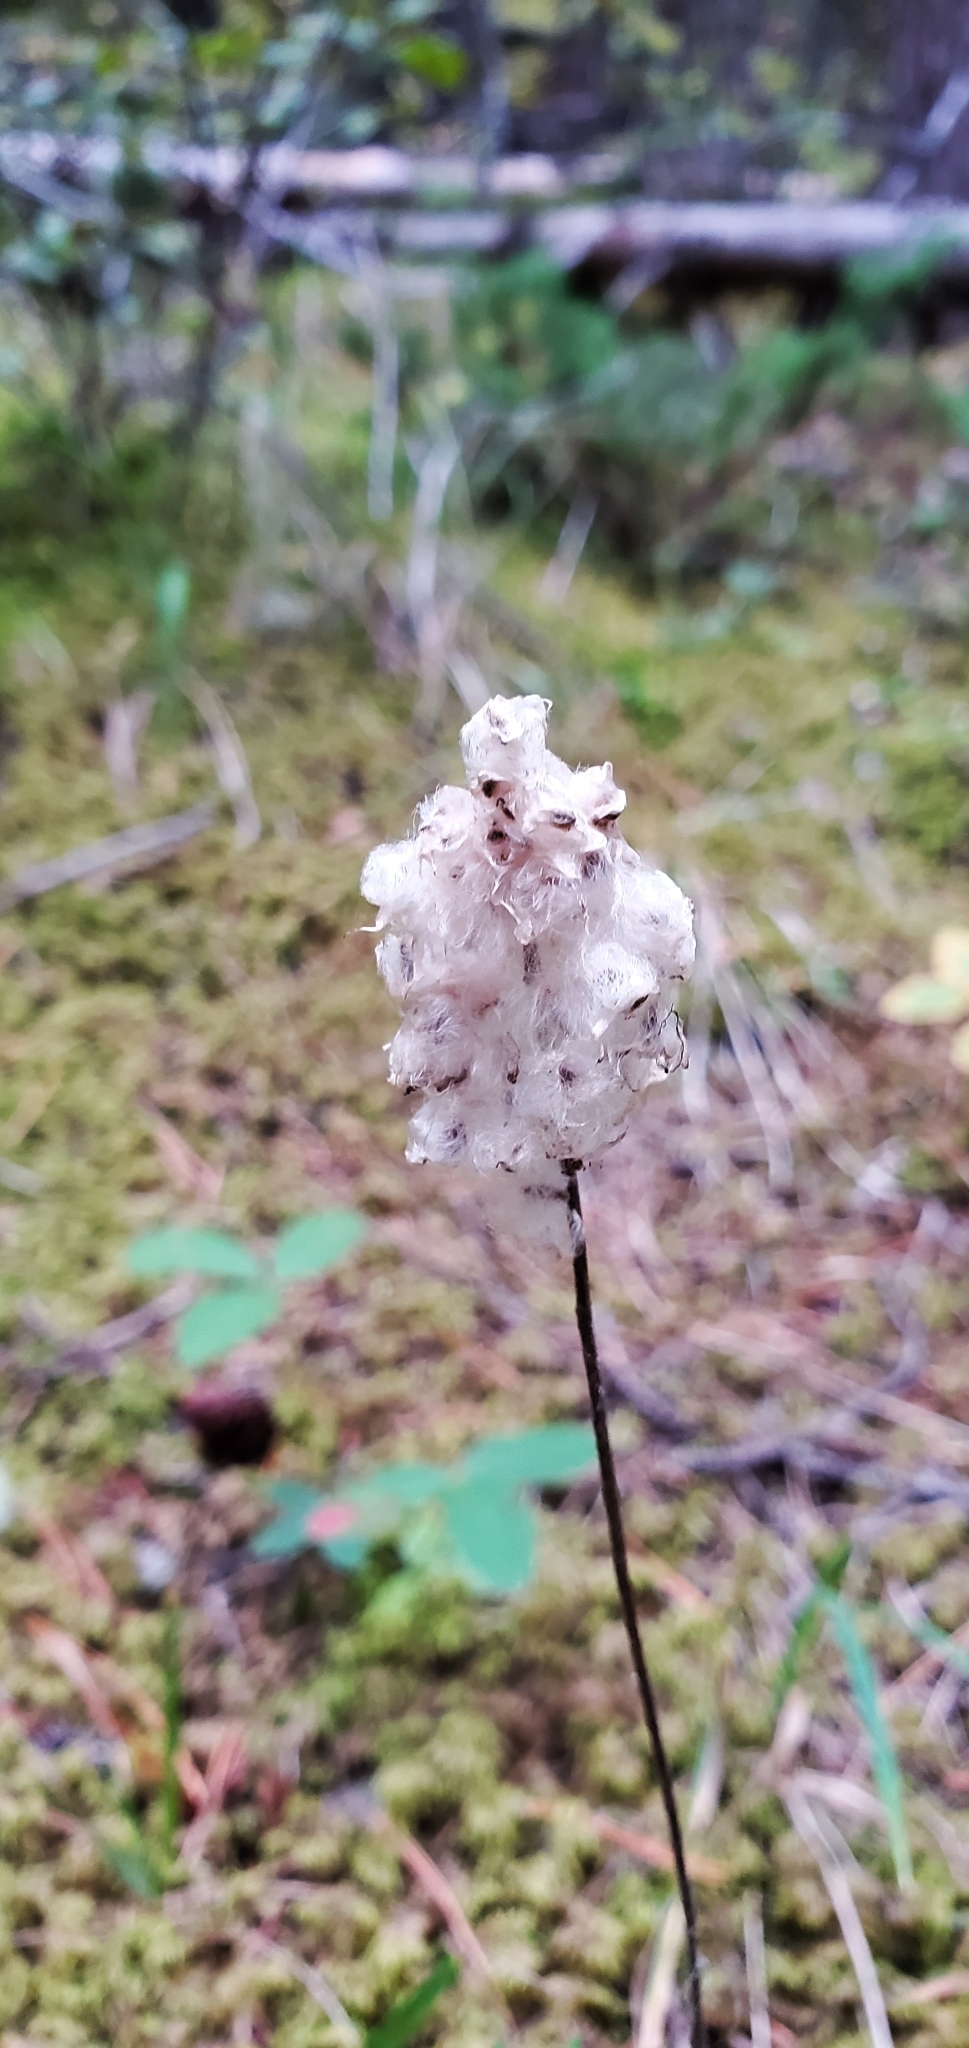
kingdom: Plantae
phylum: Tracheophyta
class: Magnoliopsida
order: Ranunculales
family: Ranunculaceae
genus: Anemone
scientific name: Anemone cylindrica
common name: Candle anemone
